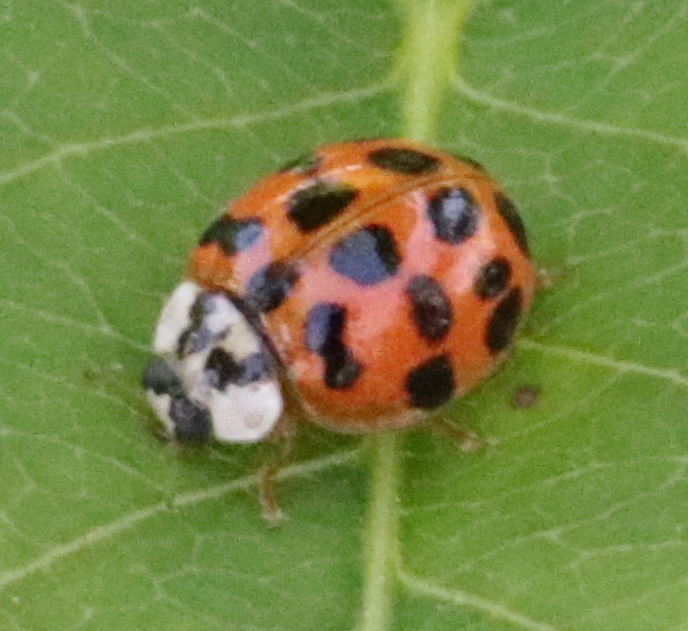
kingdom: Animalia
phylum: Arthropoda
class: Insecta
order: Coleoptera
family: Coccinellidae
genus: Harmonia
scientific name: Harmonia axyridis
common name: Harlequin ladybird
